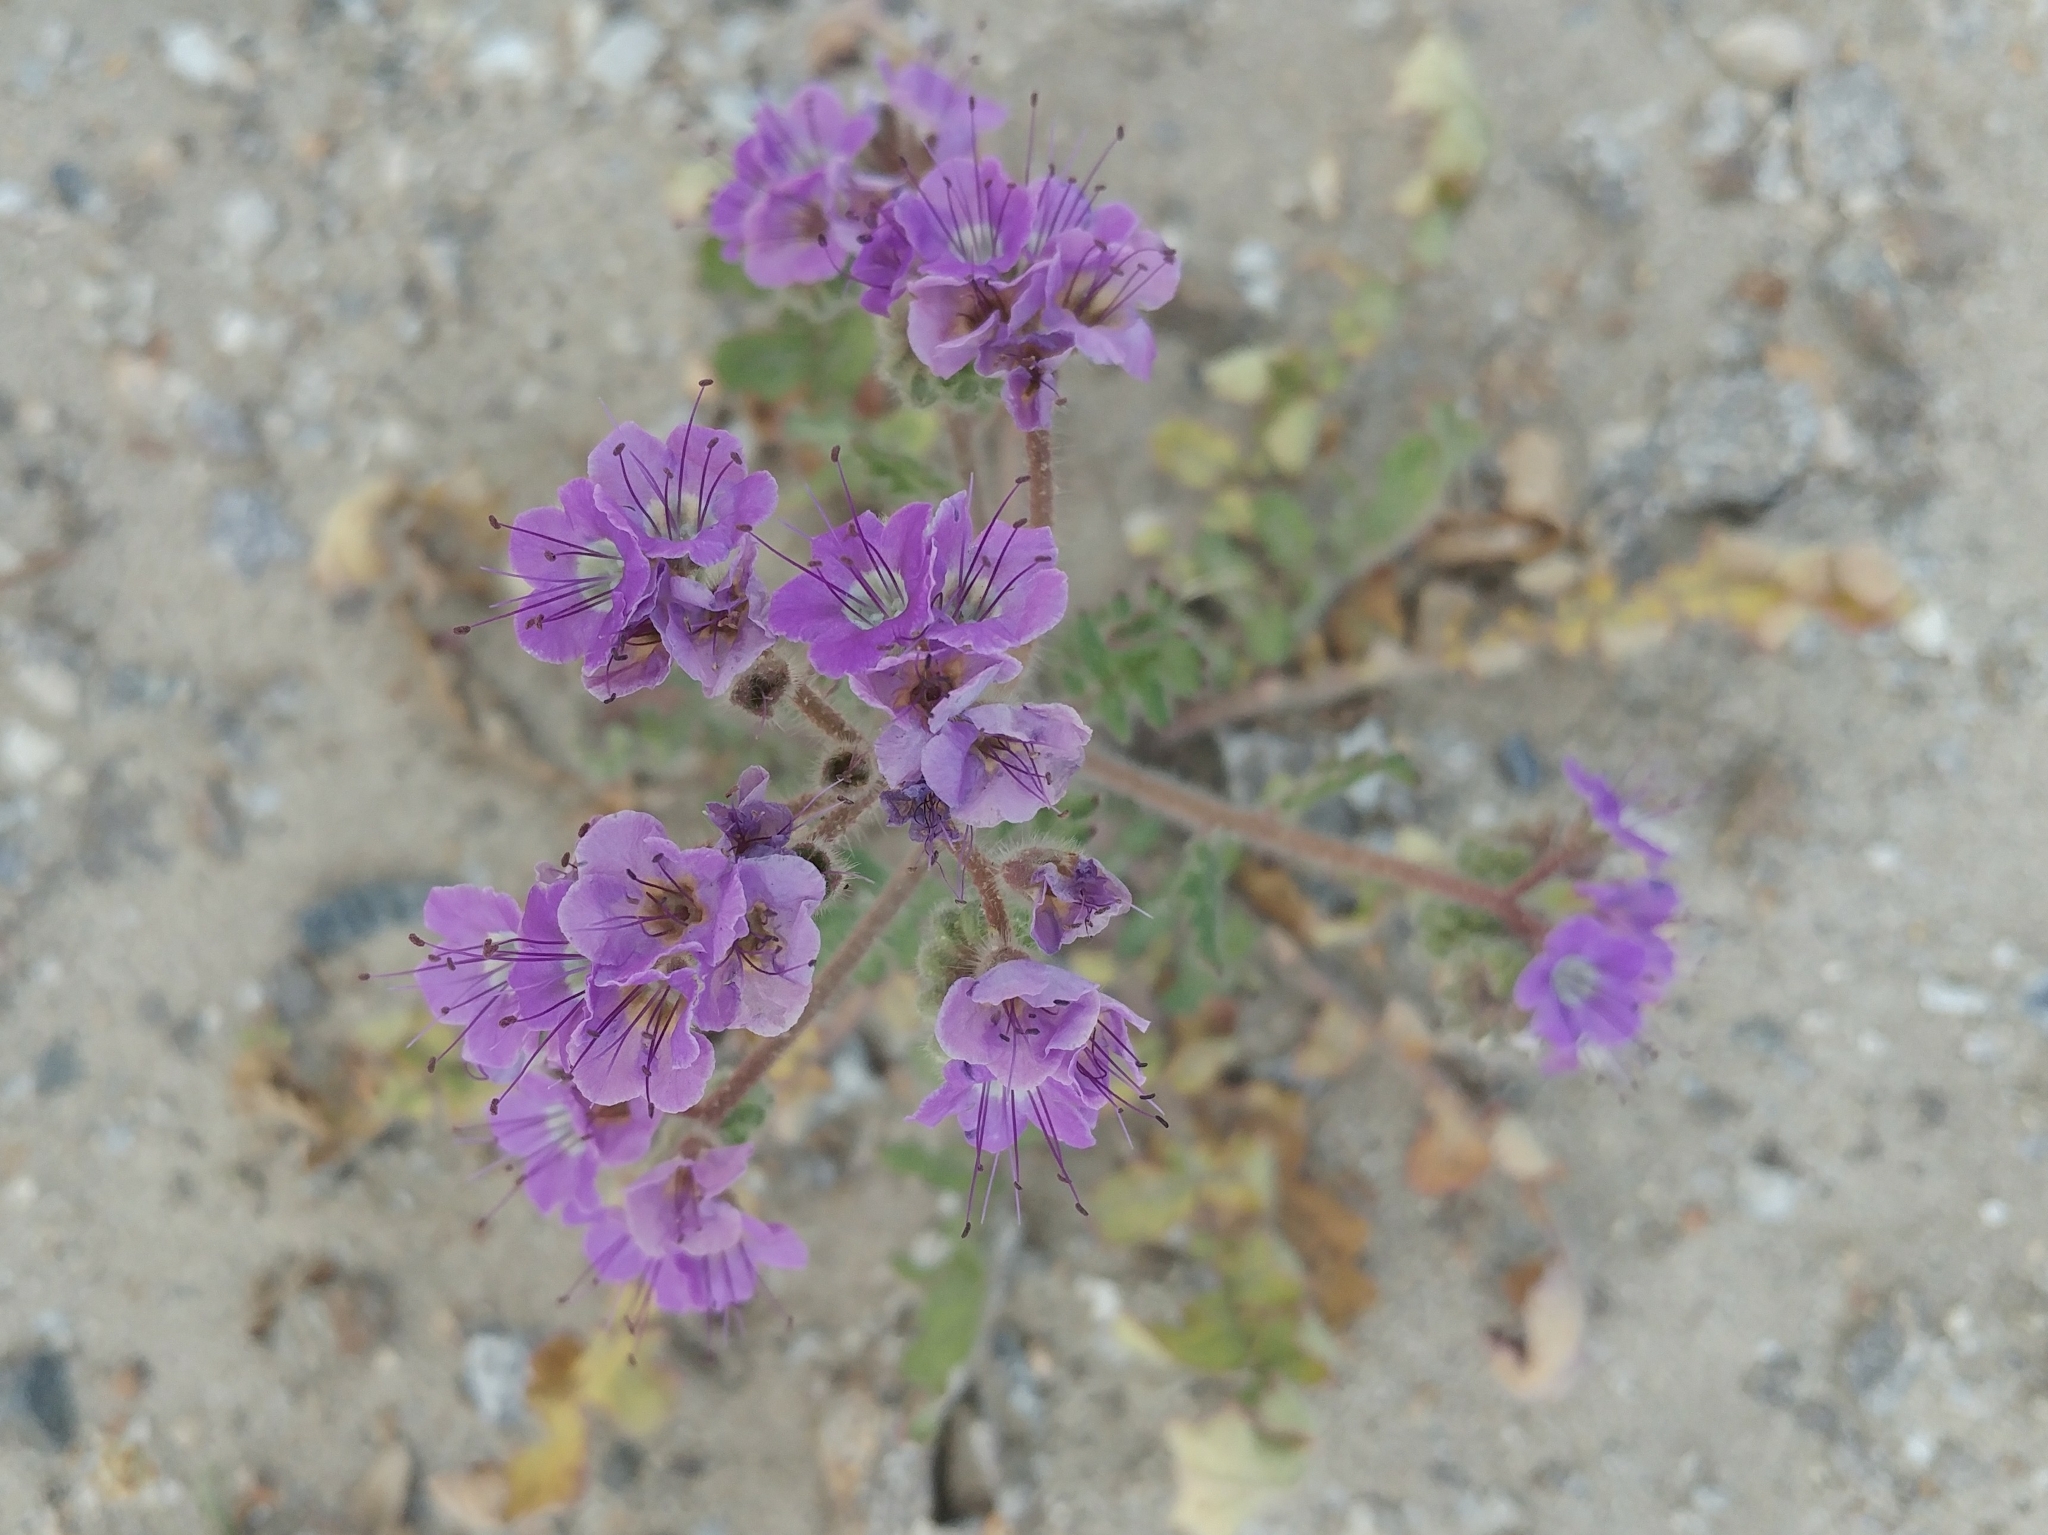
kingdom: Plantae
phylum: Tracheophyta
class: Magnoliopsida
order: Boraginales
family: Hydrophyllaceae
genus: Phacelia
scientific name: Phacelia crenulata
